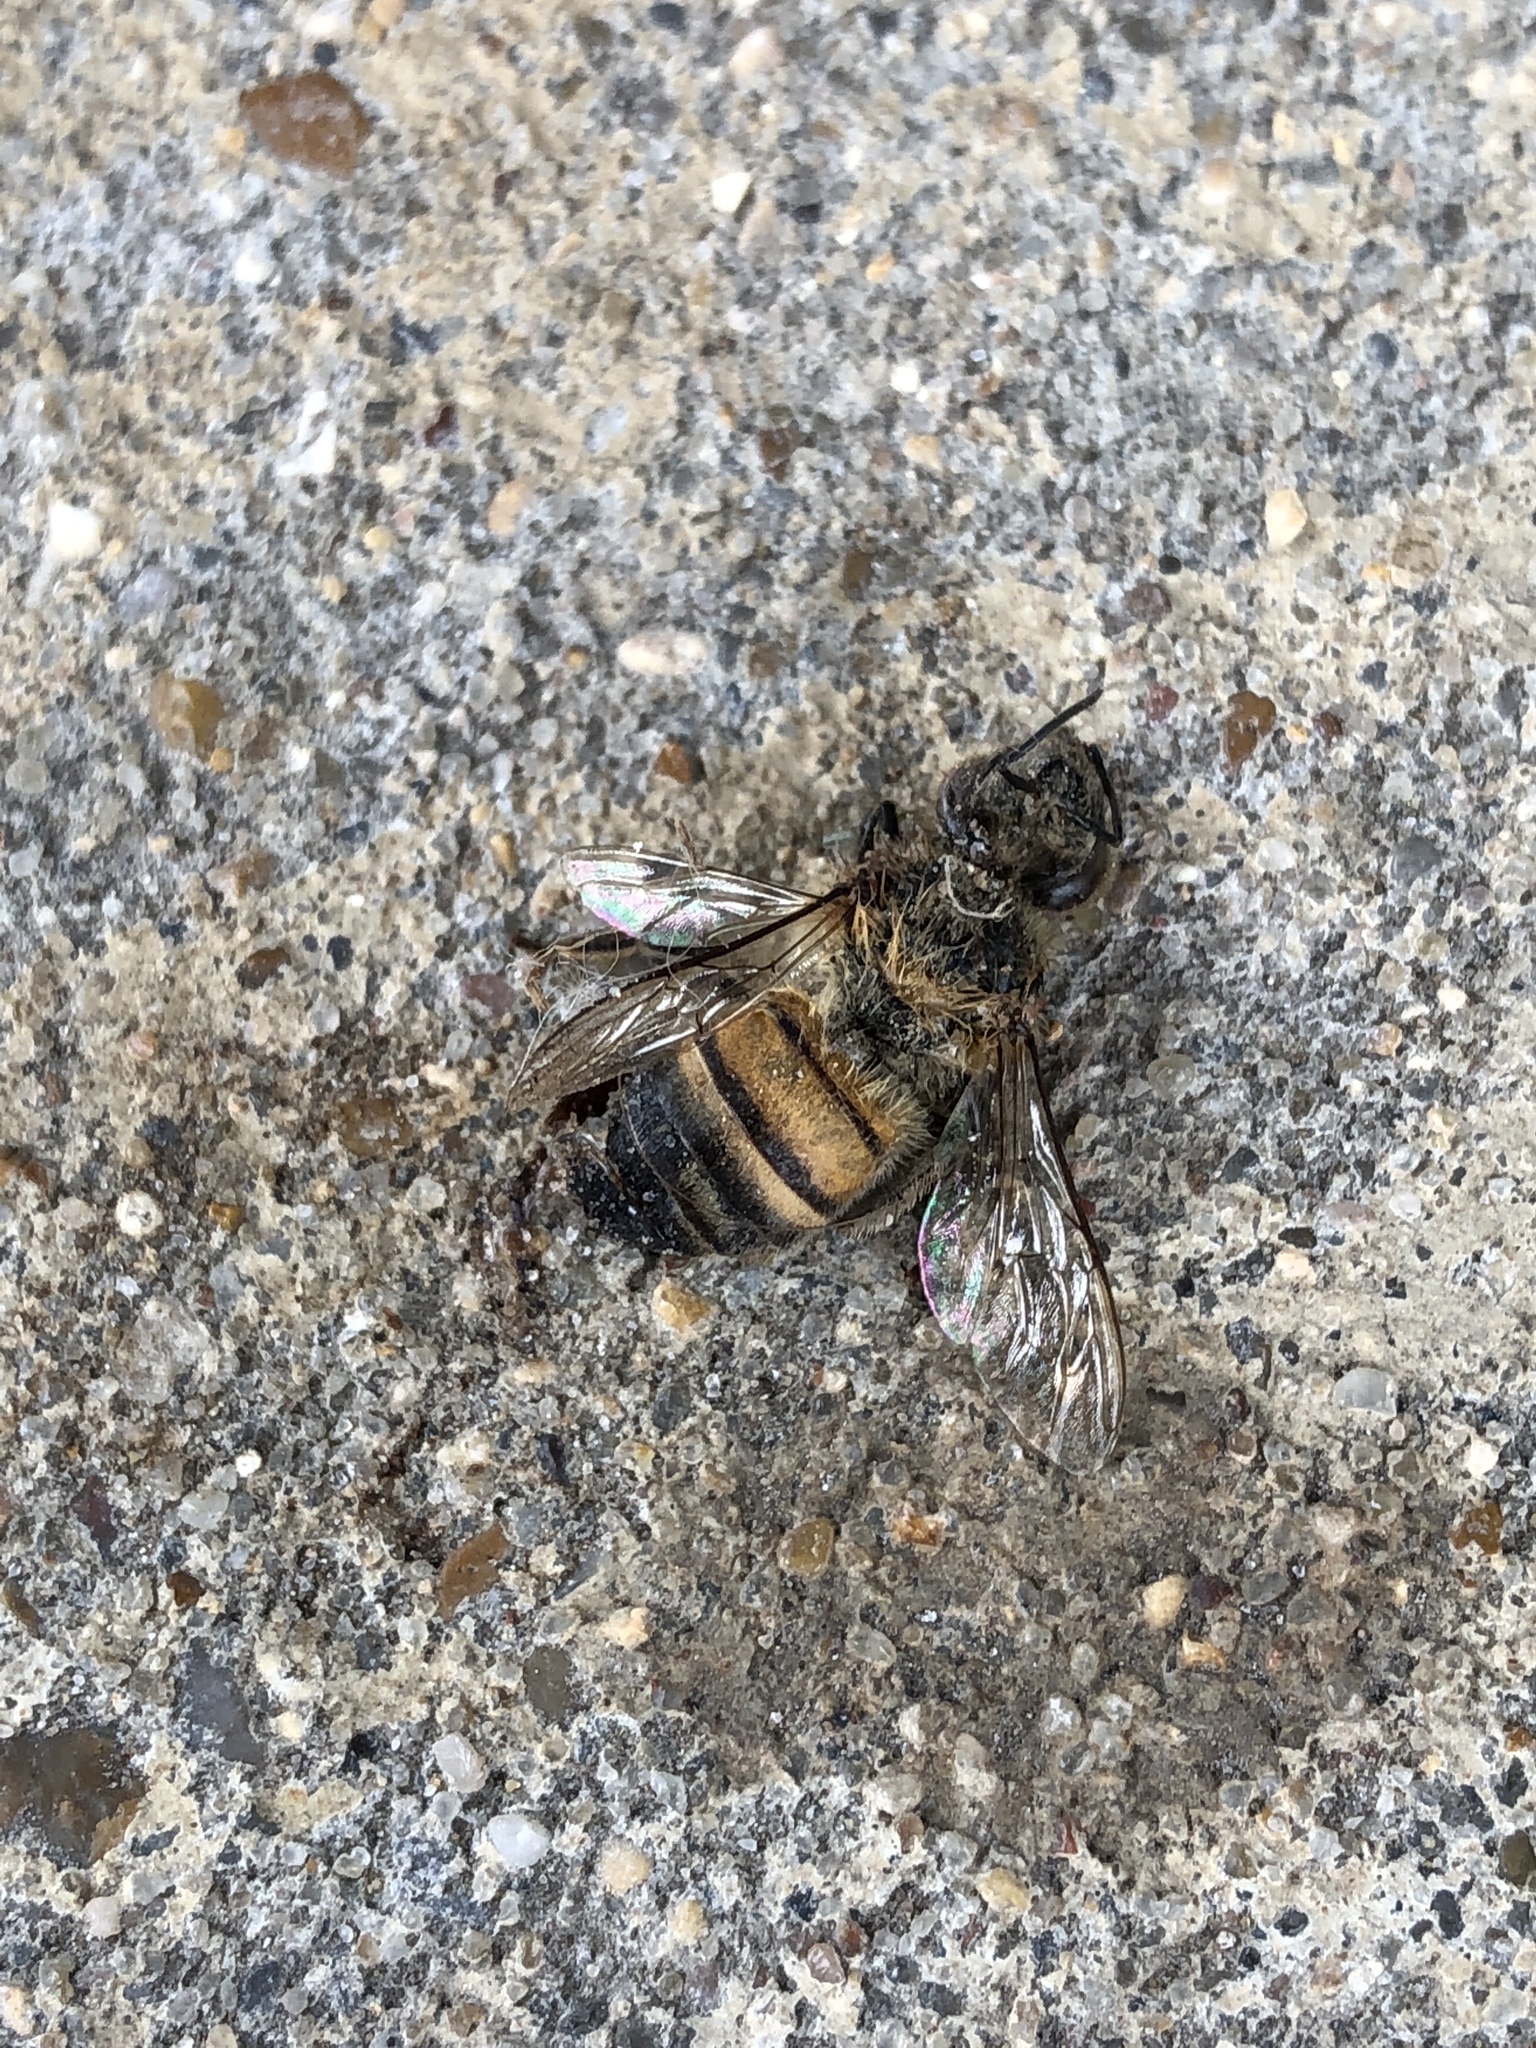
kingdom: Animalia
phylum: Arthropoda
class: Insecta
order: Hymenoptera
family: Apidae
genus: Apis
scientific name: Apis mellifera
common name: Honey bee
